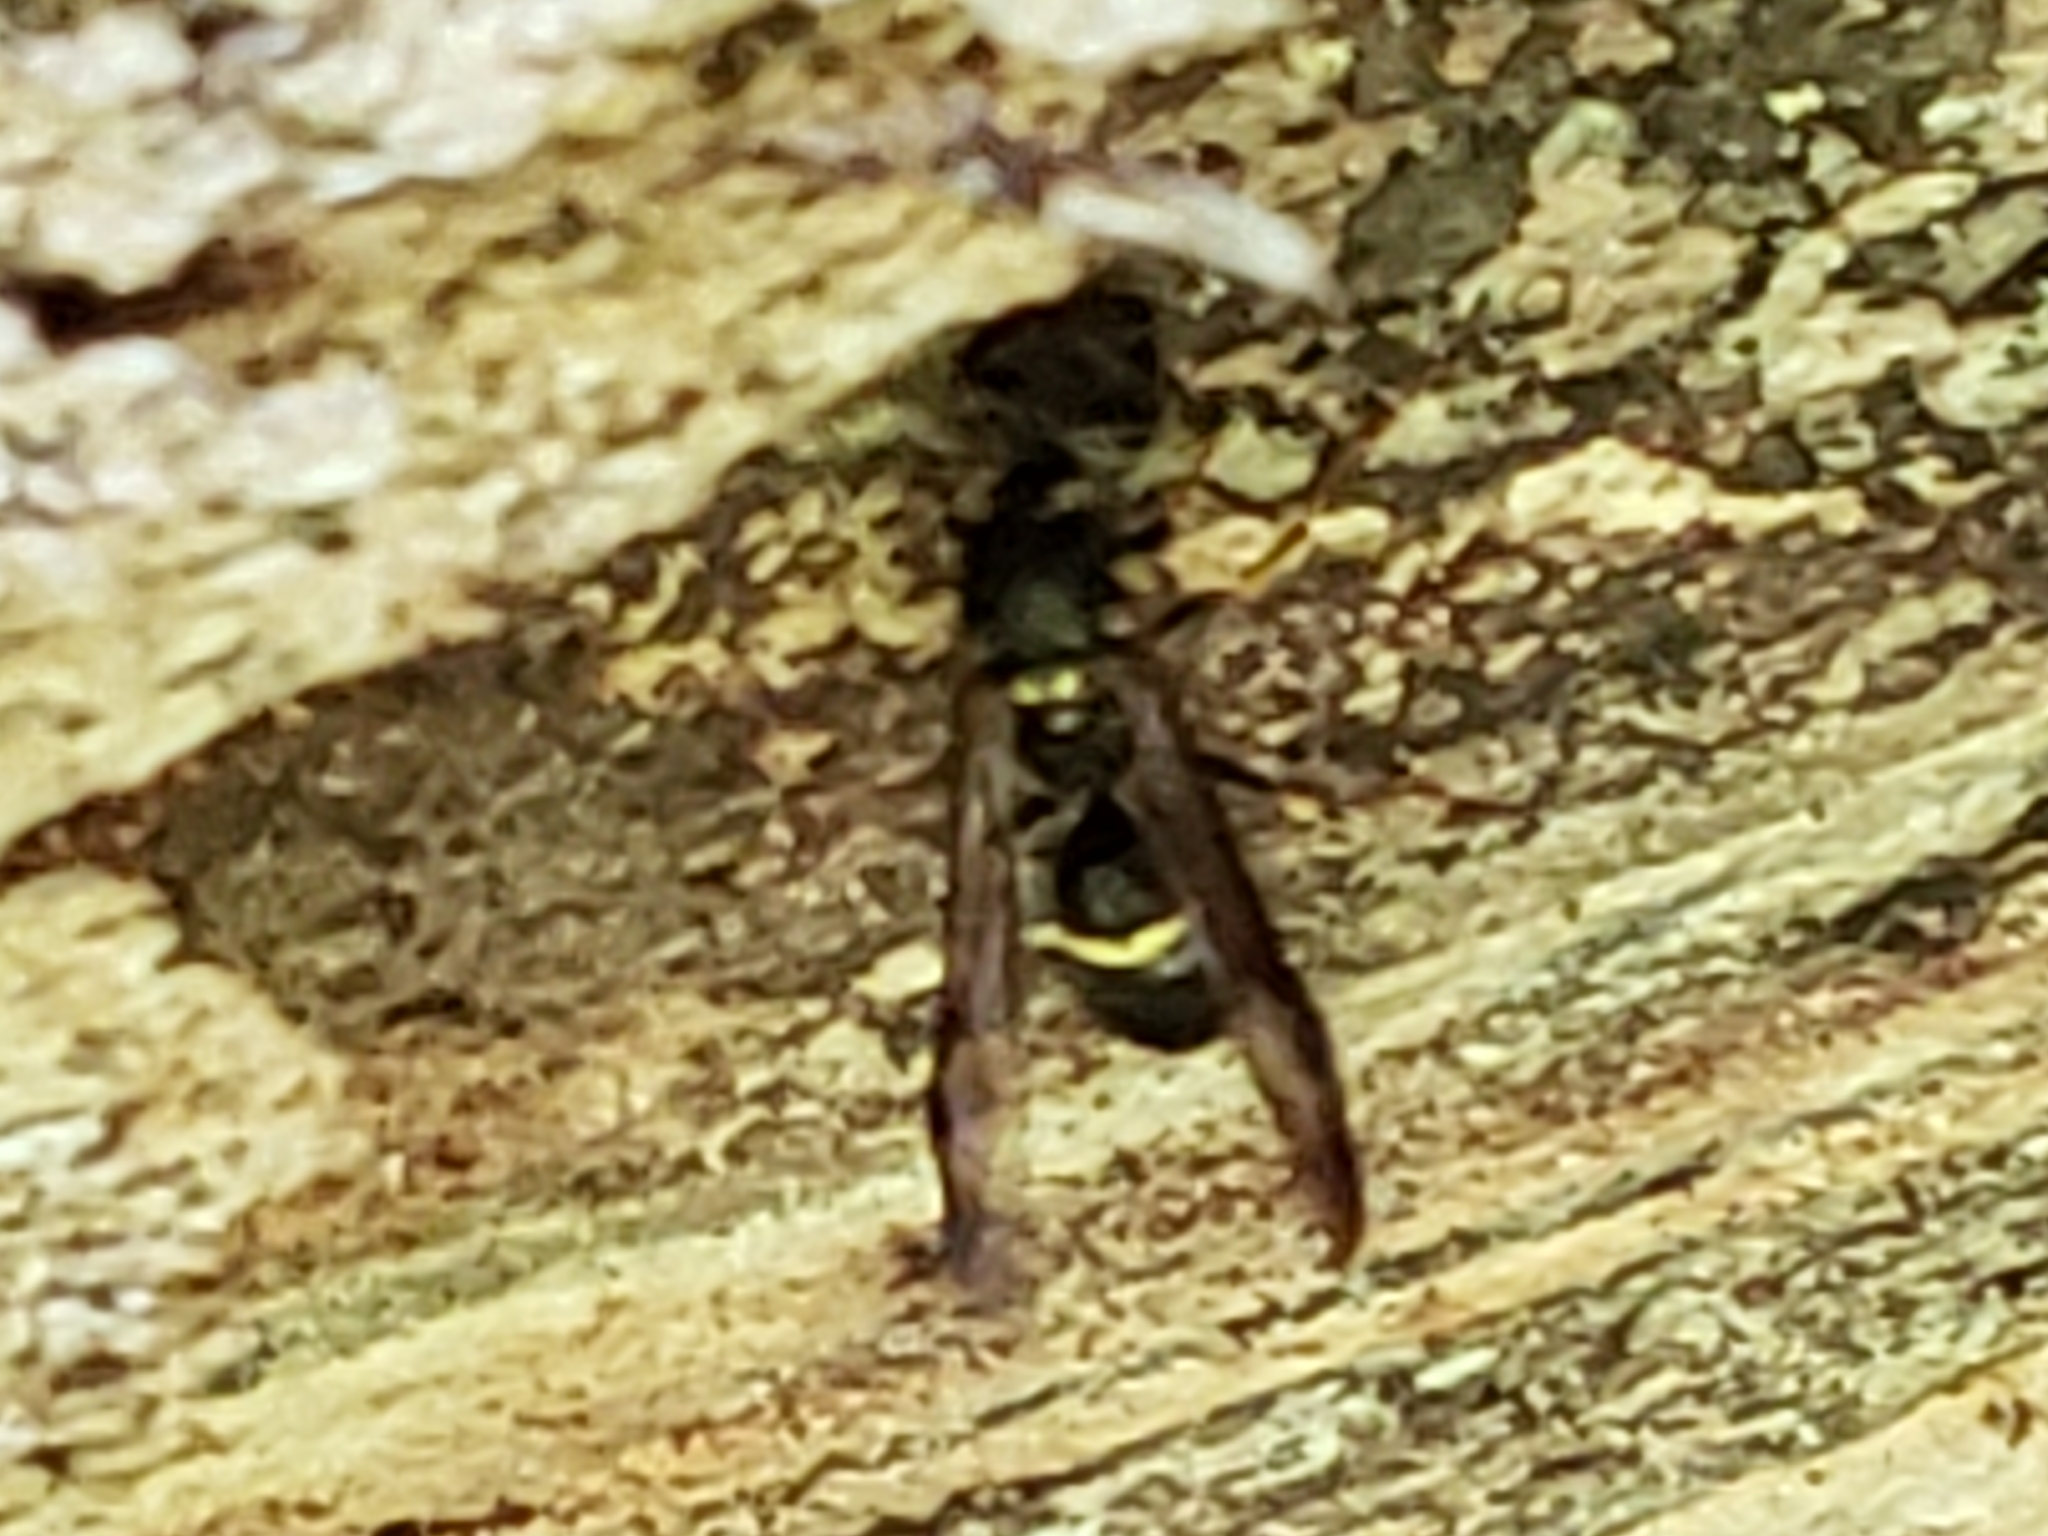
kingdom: Animalia
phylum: Arthropoda
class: Insecta
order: Hymenoptera
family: Eumenidae
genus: Symmorphus
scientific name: Symmorphus
